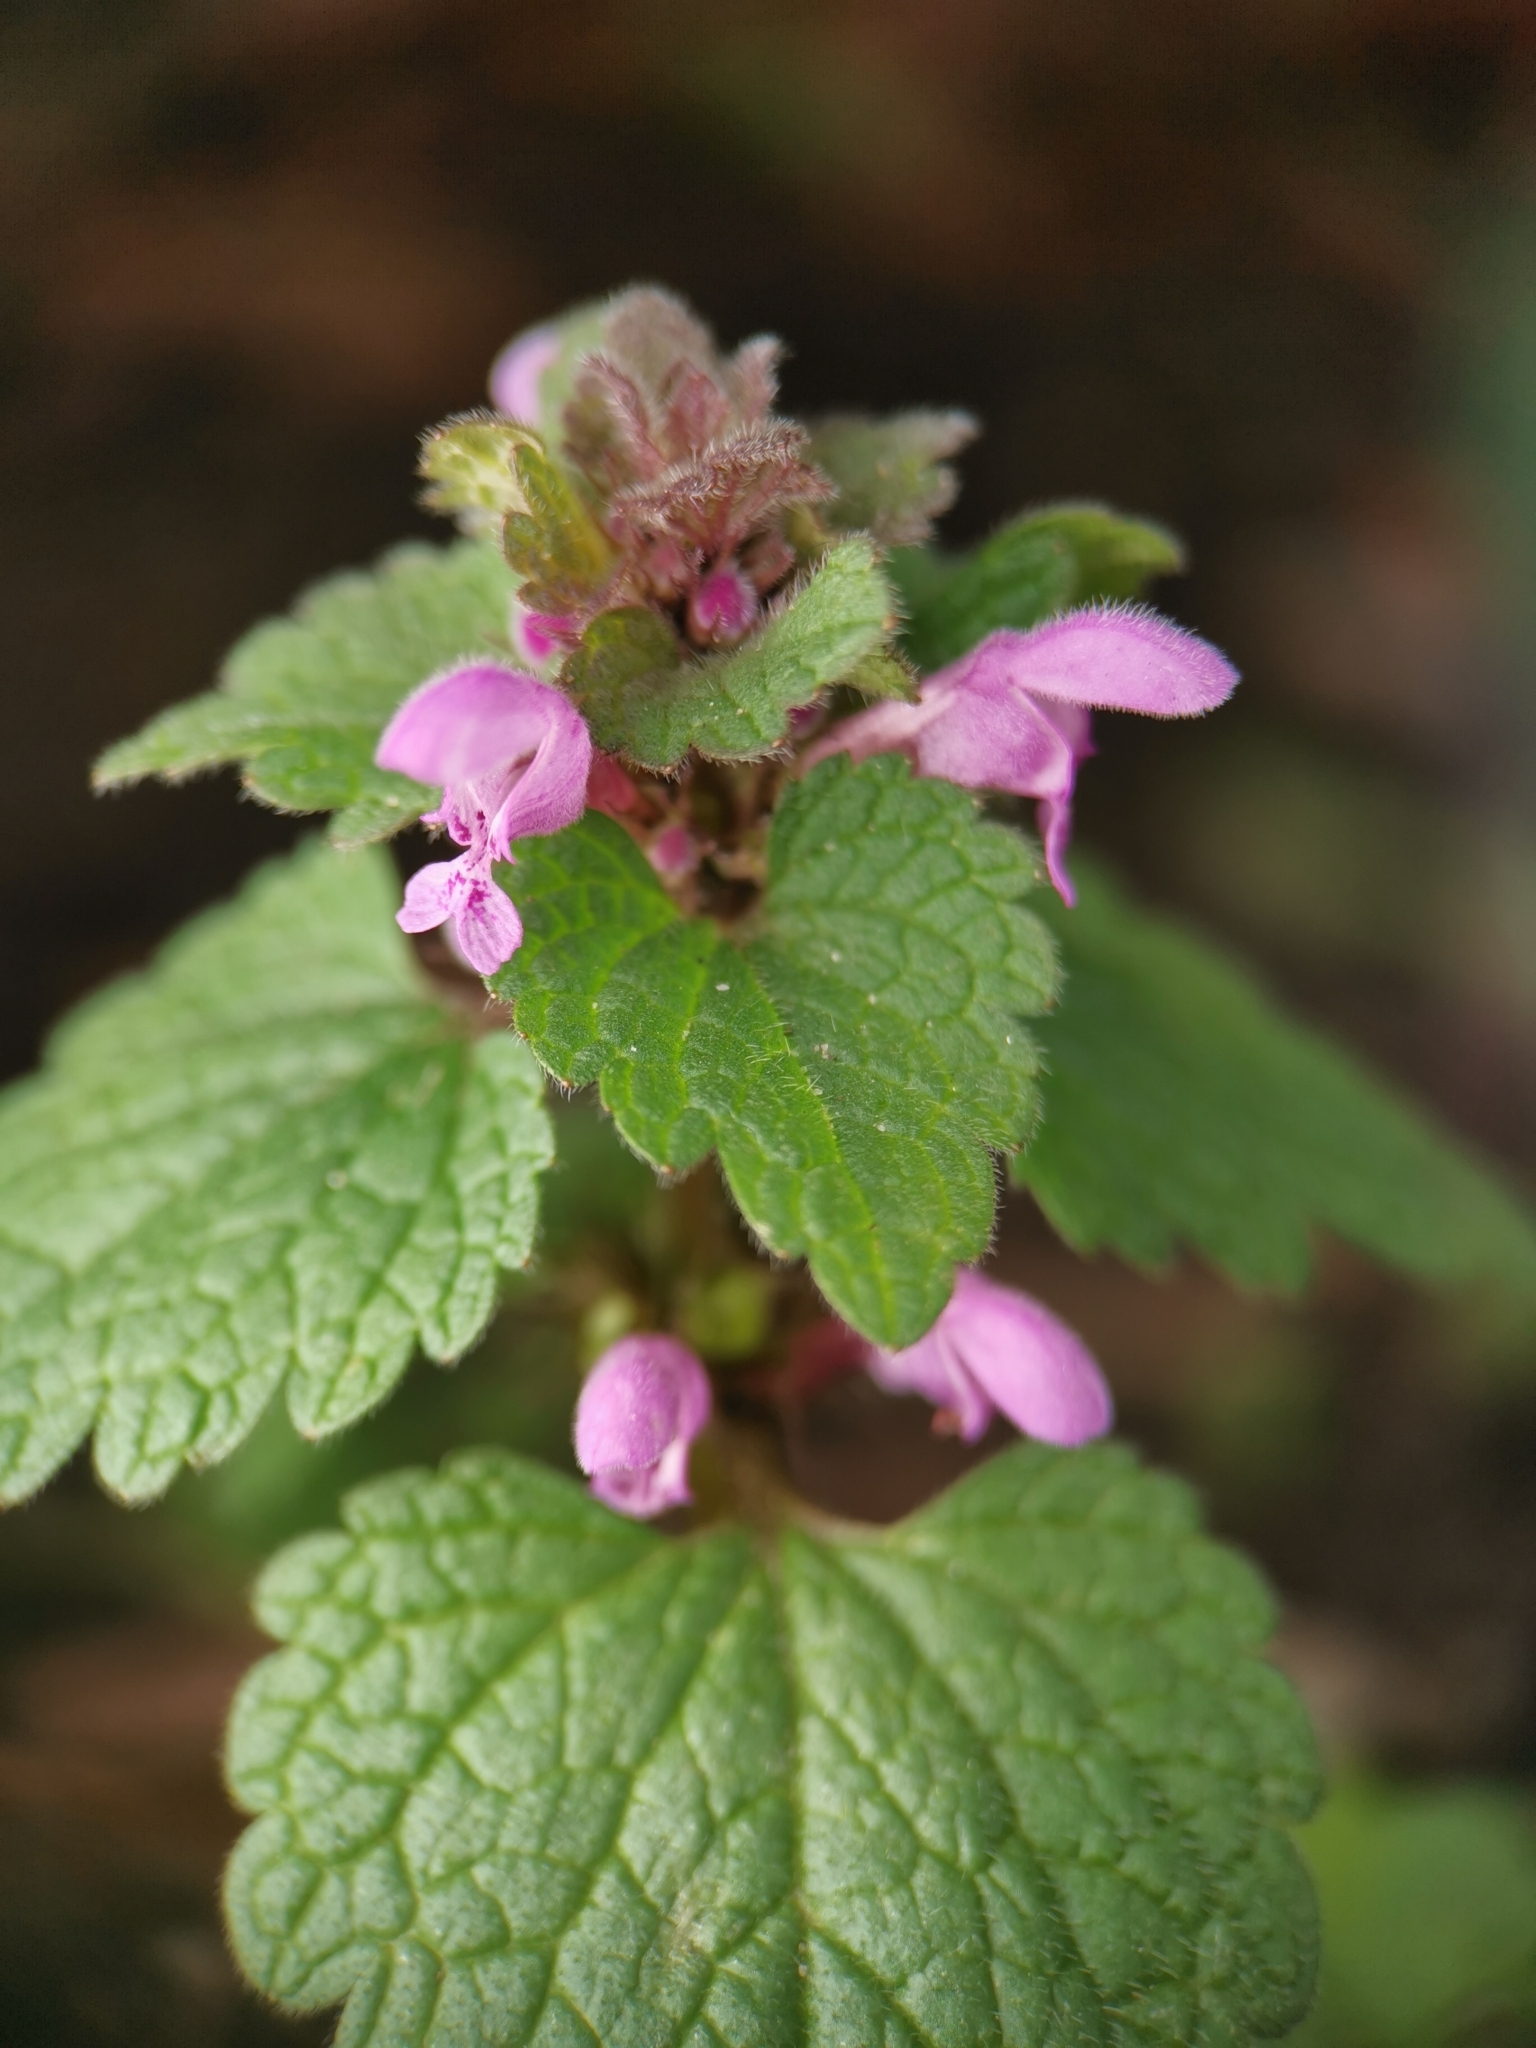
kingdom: Plantae
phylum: Tracheophyta
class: Magnoliopsida
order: Lamiales
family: Lamiaceae
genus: Lamium
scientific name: Lamium purpureum
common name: Red dead-nettle
